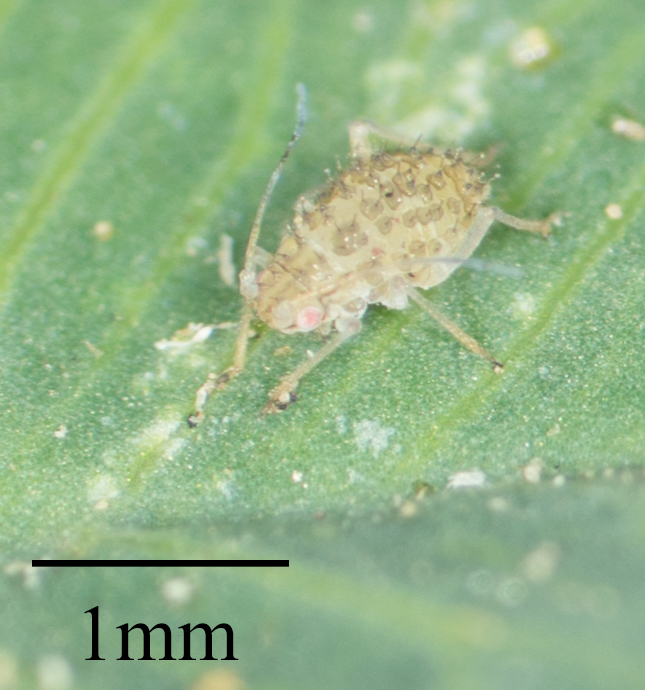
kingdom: Animalia
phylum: Arthropoda
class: Insecta
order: Hemiptera
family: Aphididae
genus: Therioaphis
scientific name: Therioaphis trifolii
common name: Spotted alfalfa aphid
